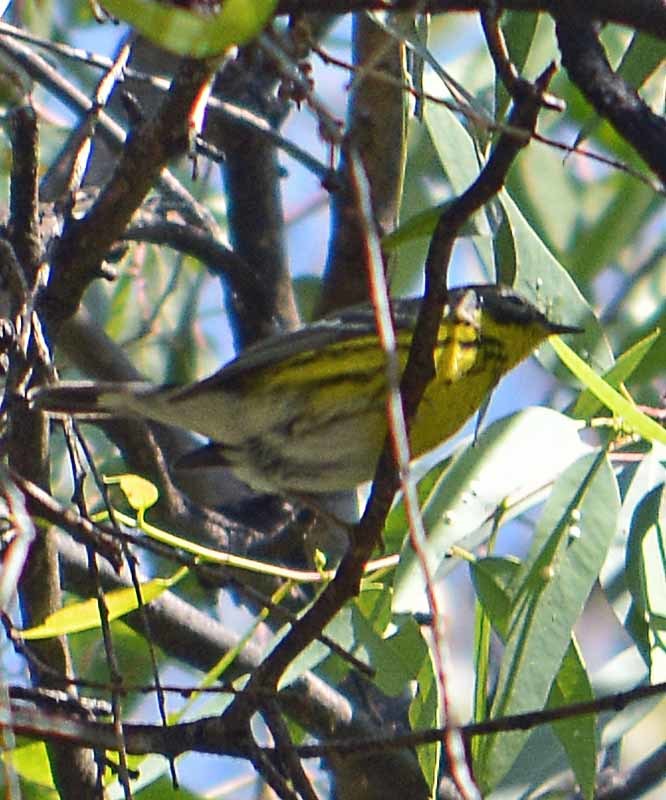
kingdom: Animalia
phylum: Chordata
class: Aves
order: Passeriformes
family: Parulidae
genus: Setophaga
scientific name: Setophaga magnolia
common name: Magnolia warbler
